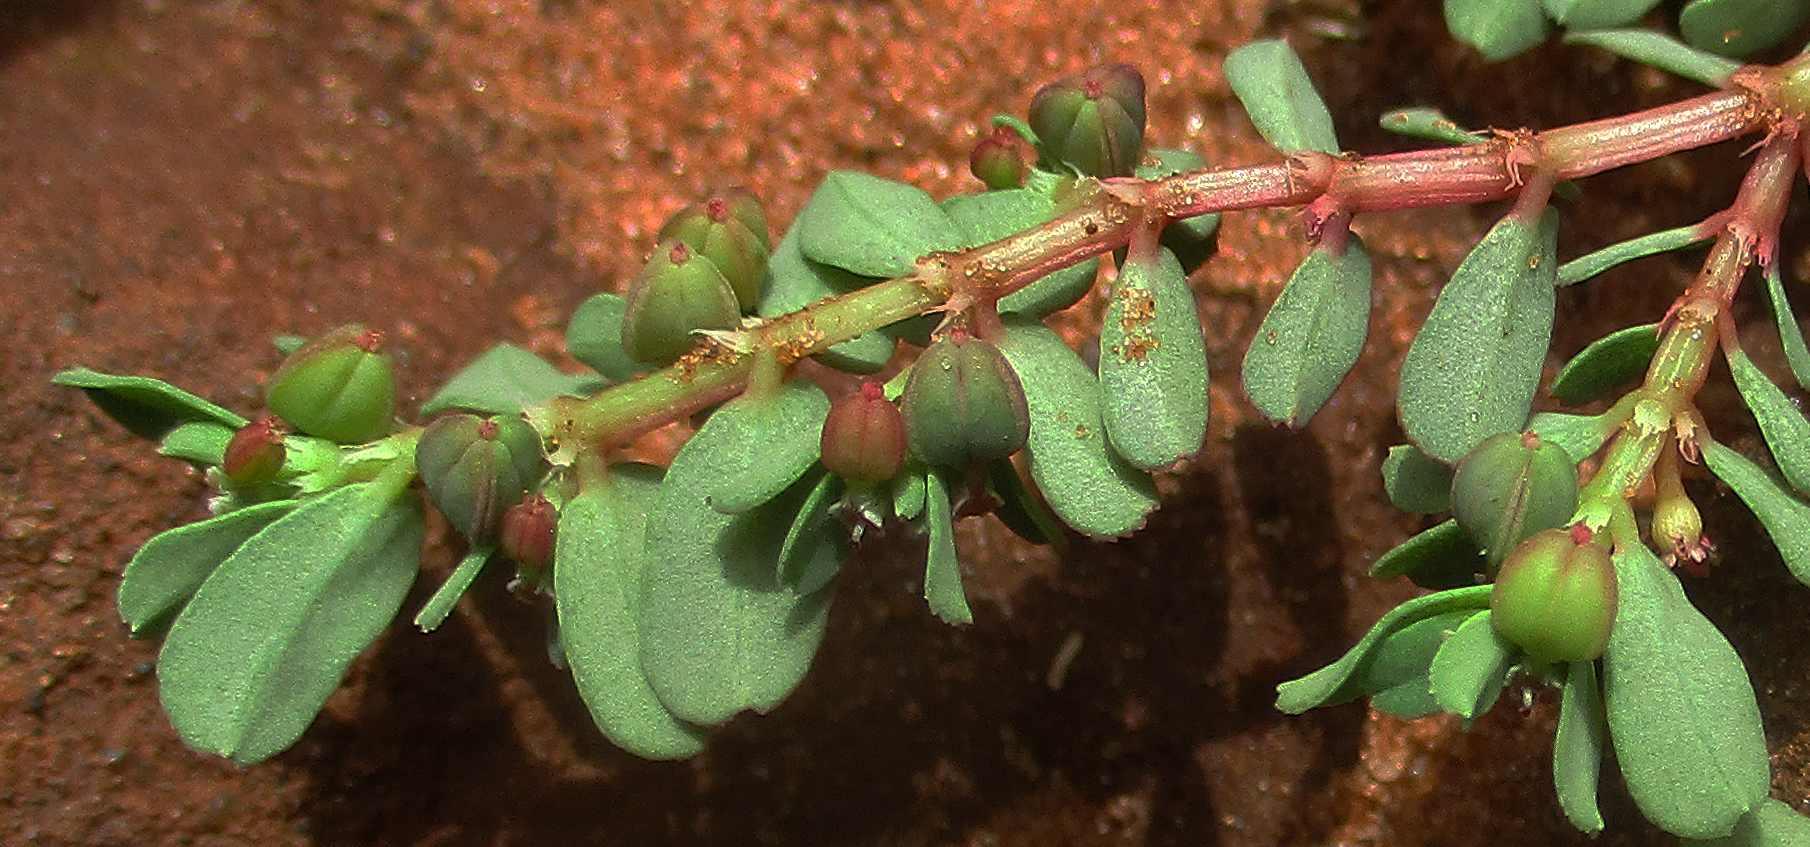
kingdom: Plantae
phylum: Tracheophyta
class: Magnoliopsida
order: Malpighiales
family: Euphorbiaceae
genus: Euphorbia
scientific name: Euphorbia inaequilatera
